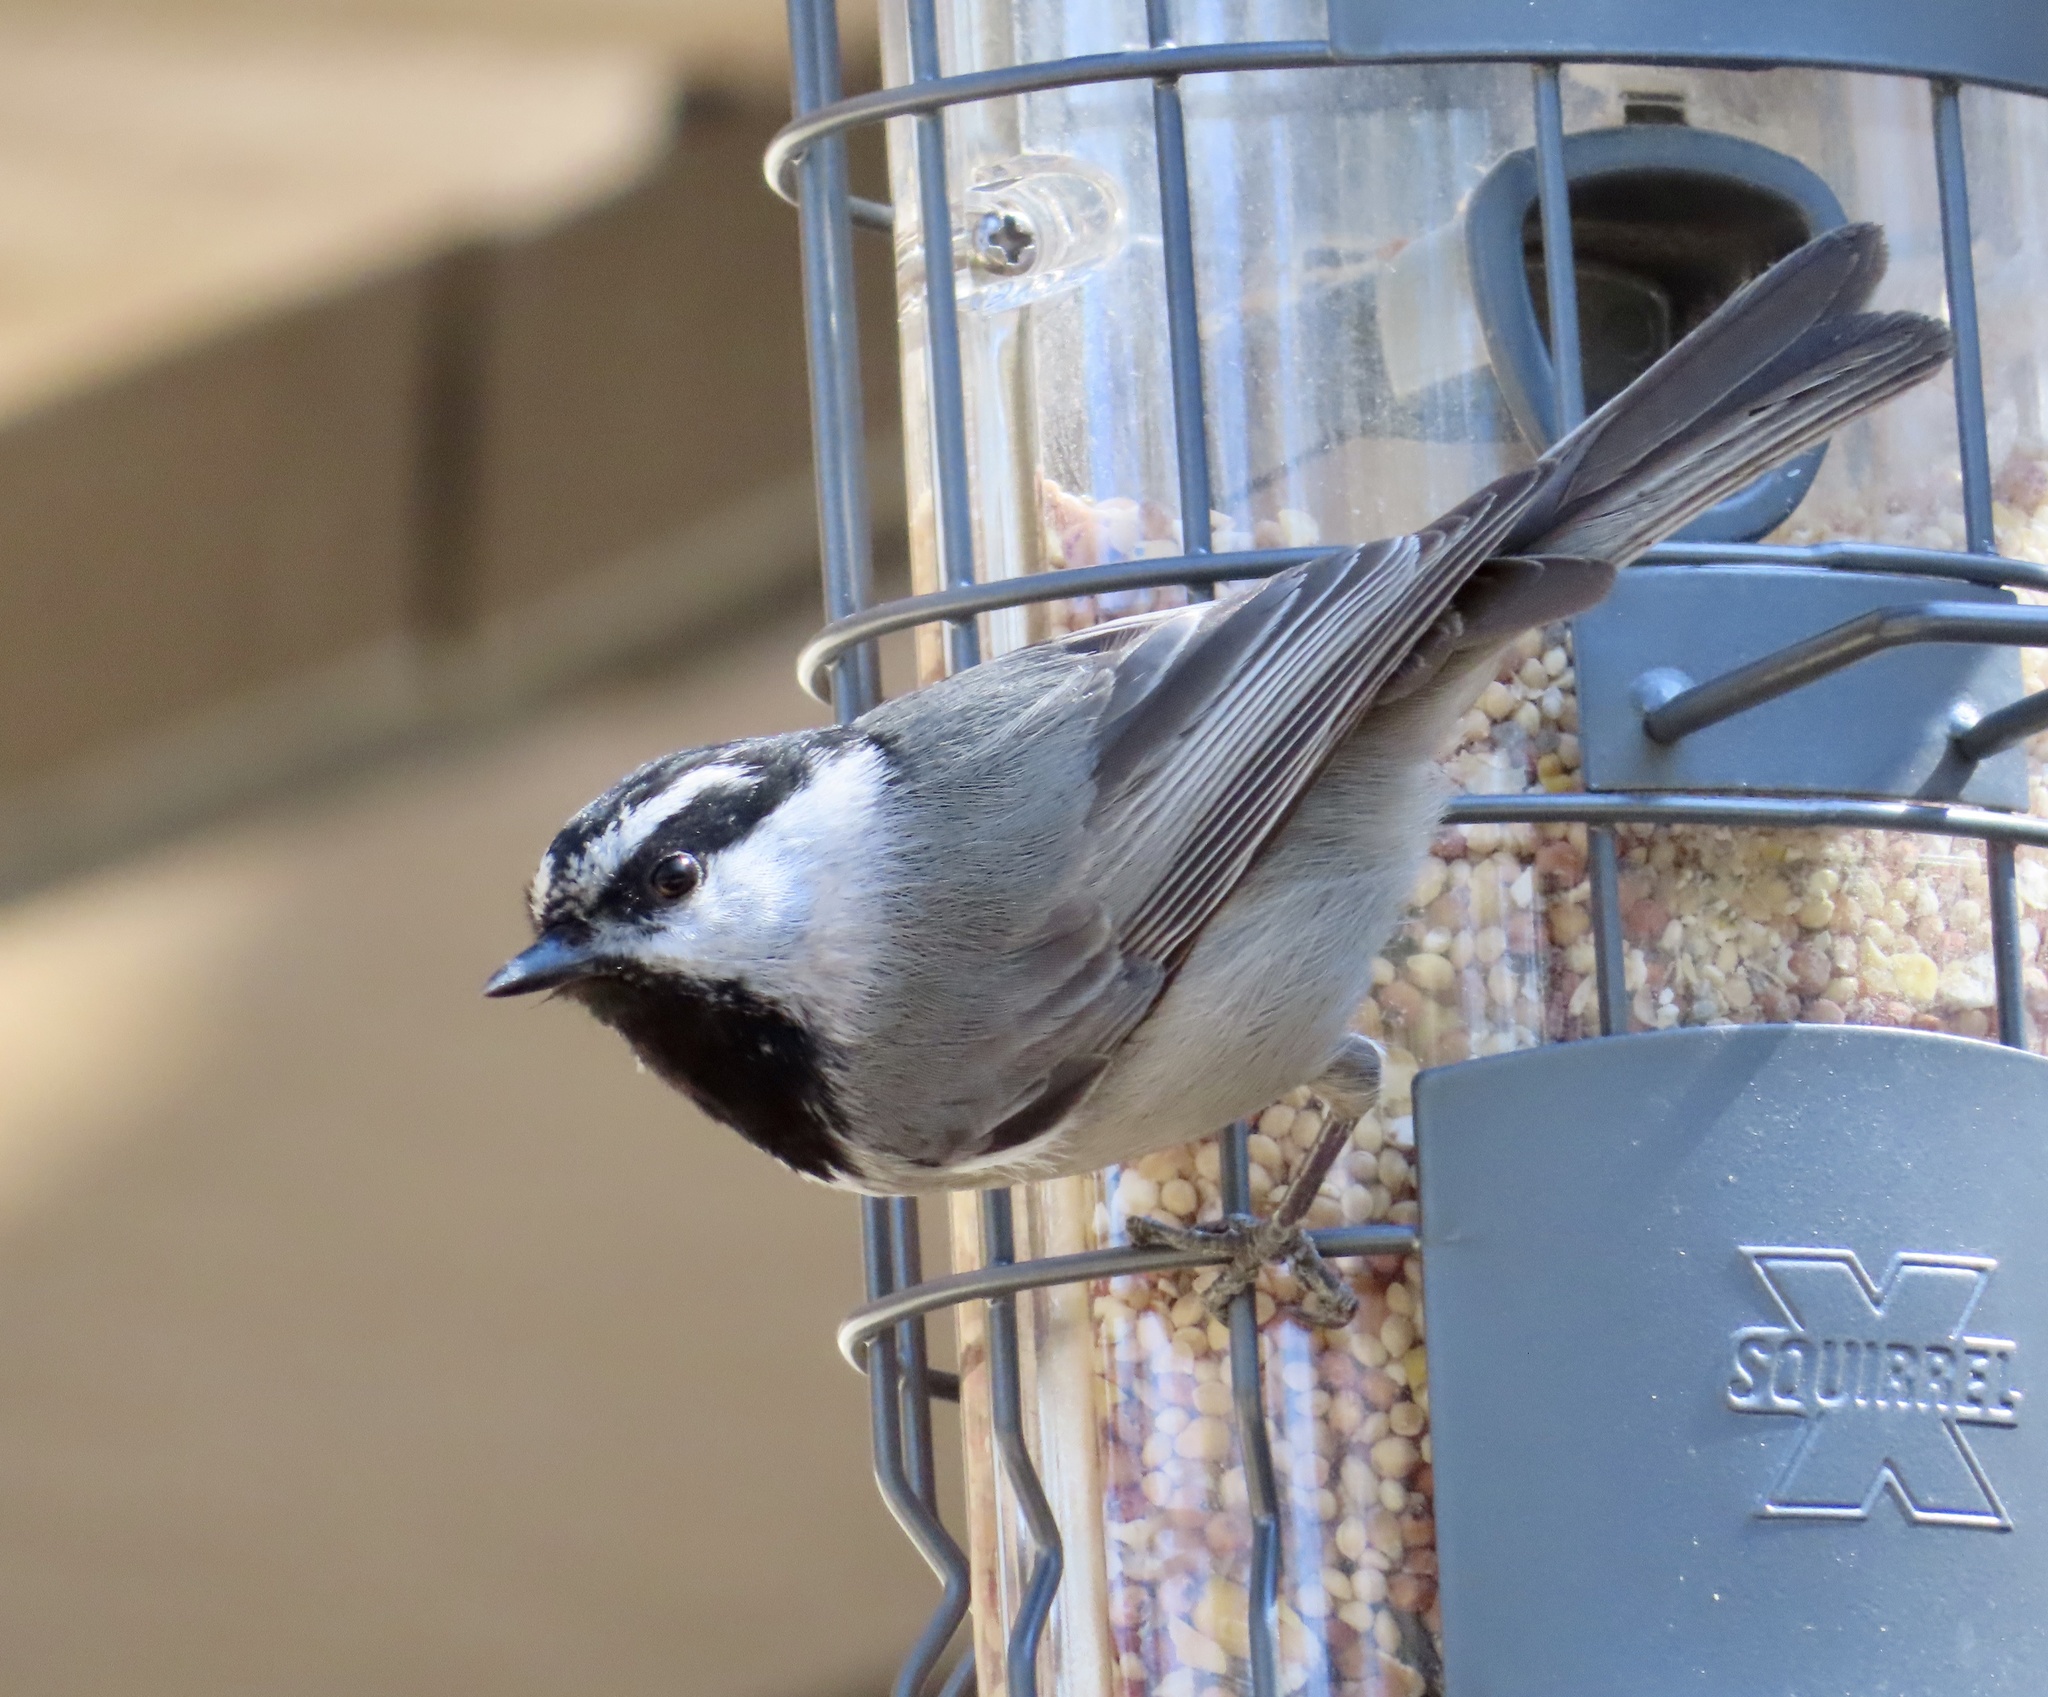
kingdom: Animalia
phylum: Chordata
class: Aves
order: Passeriformes
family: Paridae
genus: Poecile
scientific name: Poecile gambeli
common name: Mountain chickadee
